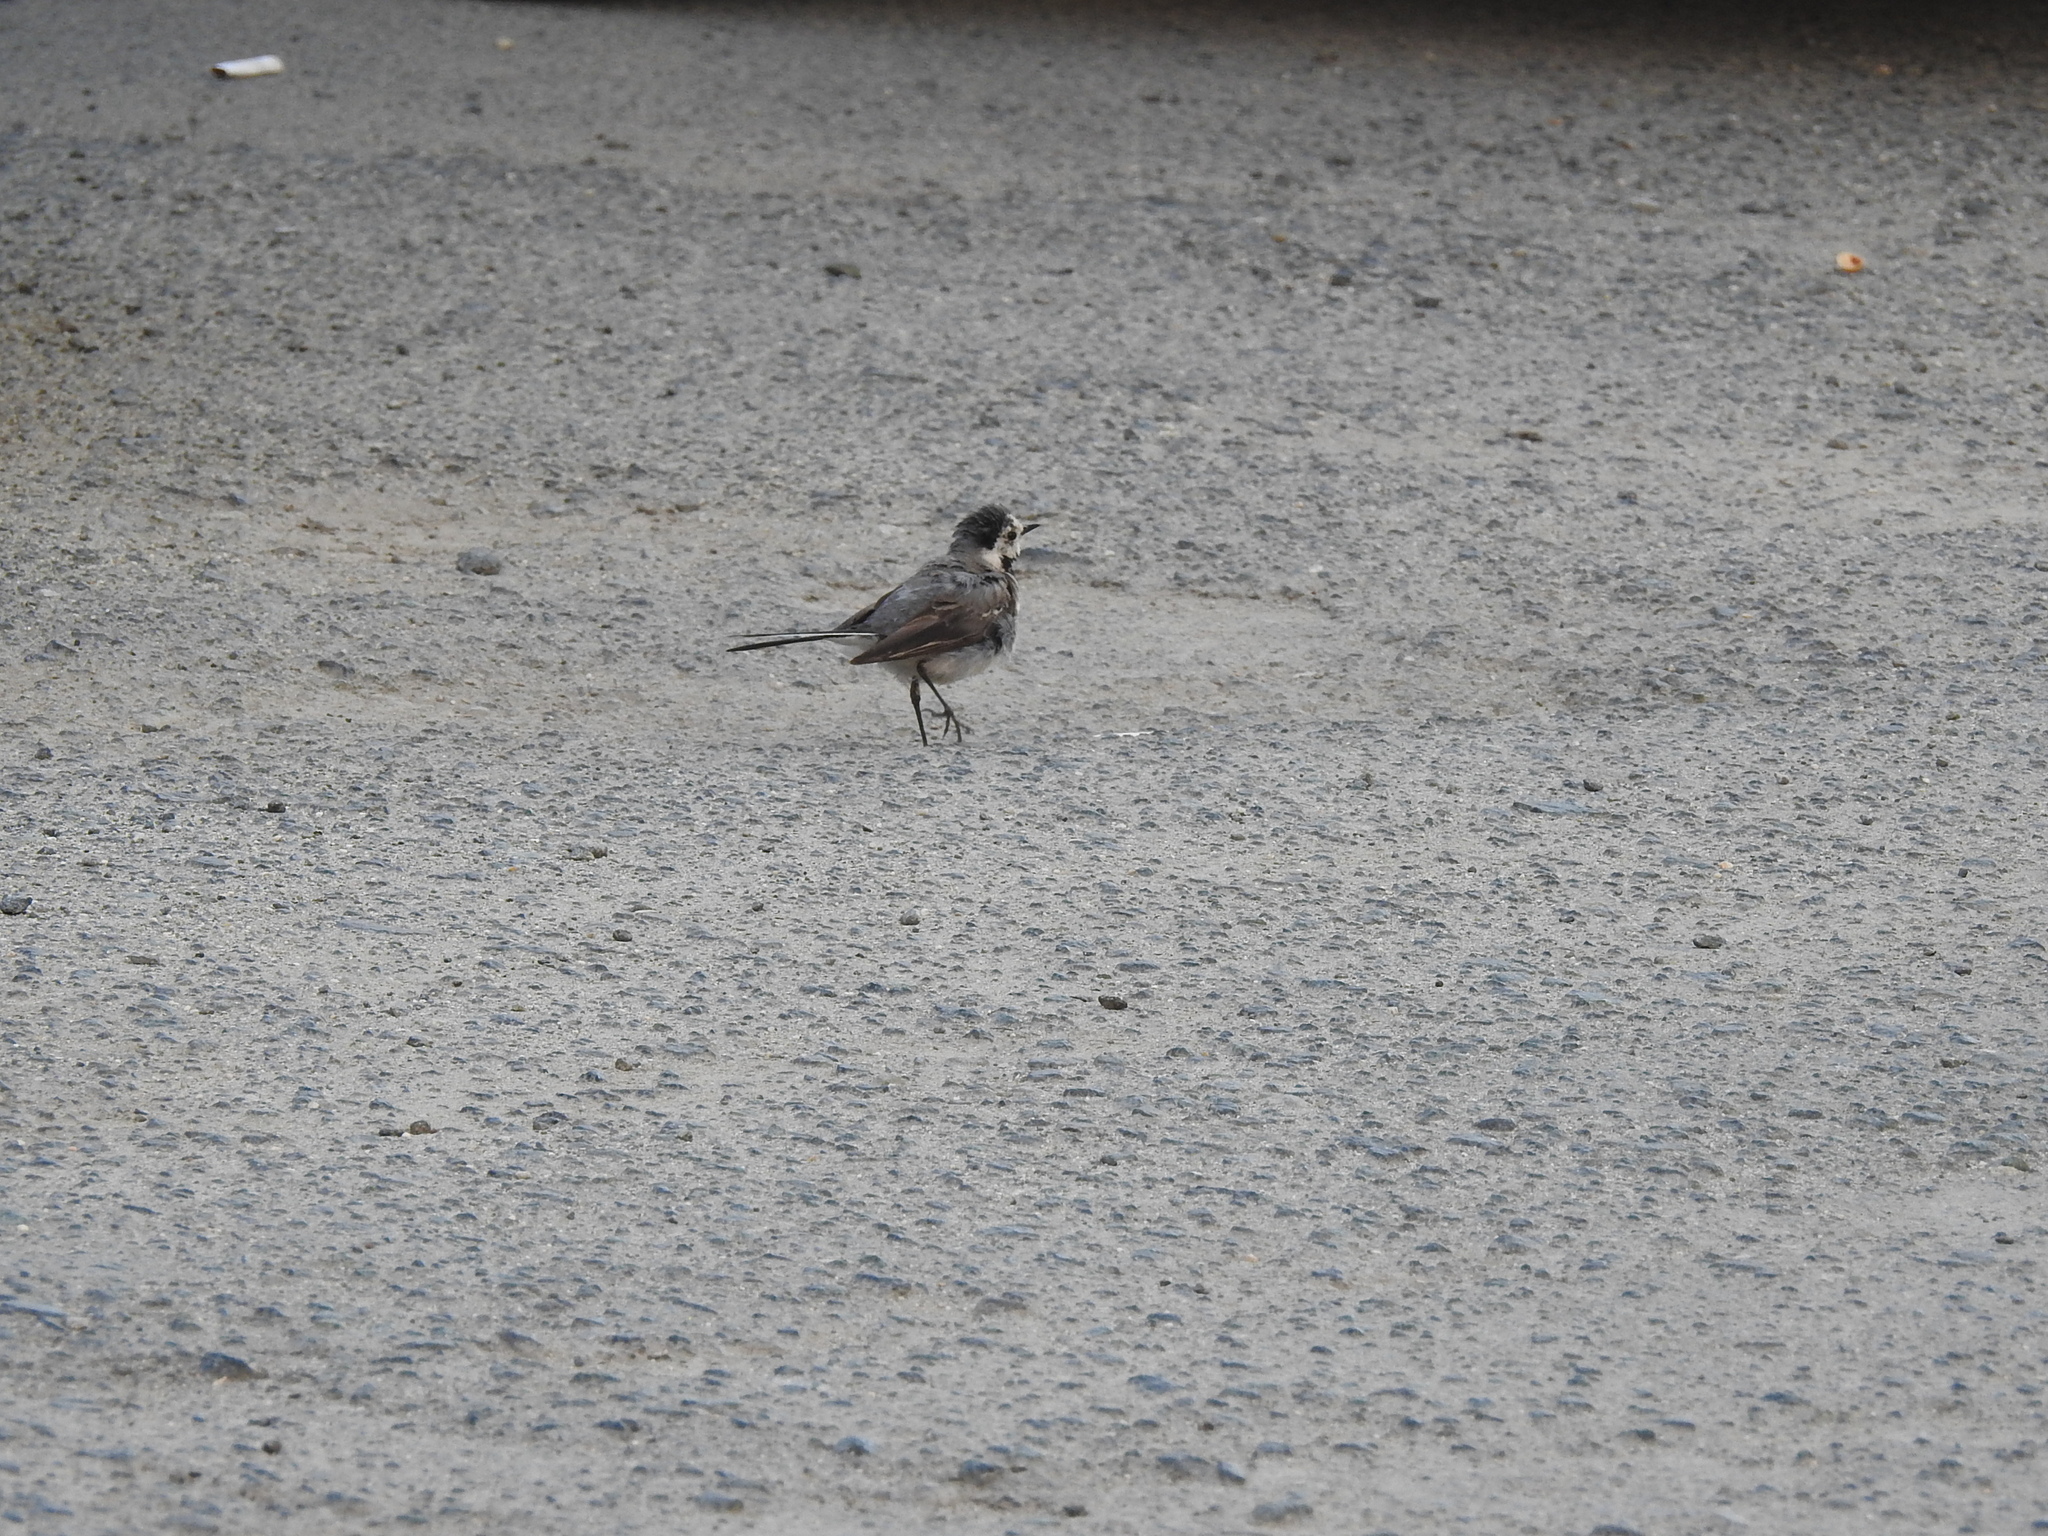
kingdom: Animalia
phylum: Chordata
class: Aves
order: Passeriformes
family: Motacillidae
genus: Motacilla
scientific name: Motacilla alba
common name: White wagtail
